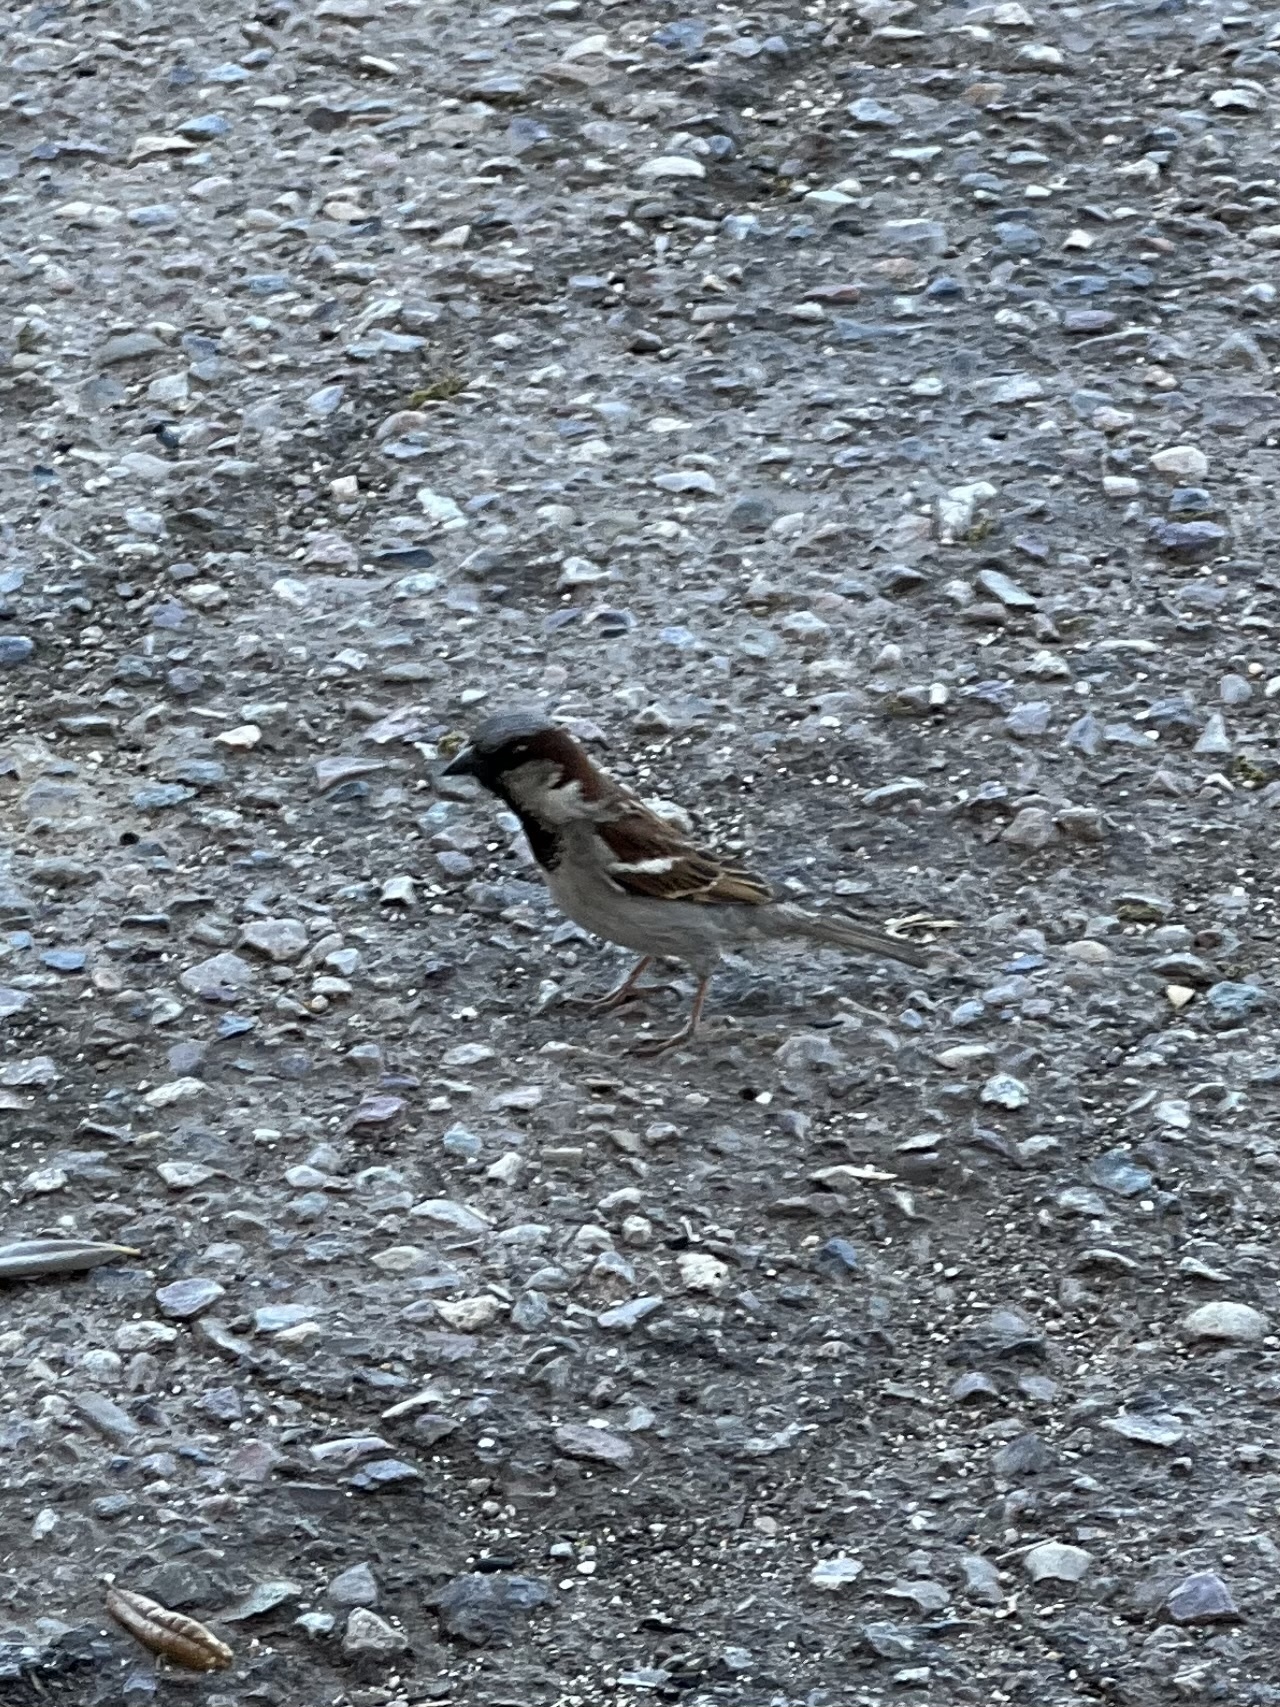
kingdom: Animalia
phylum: Chordata
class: Aves
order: Passeriformes
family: Passeridae
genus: Passer
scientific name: Passer domesticus
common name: House sparrow
